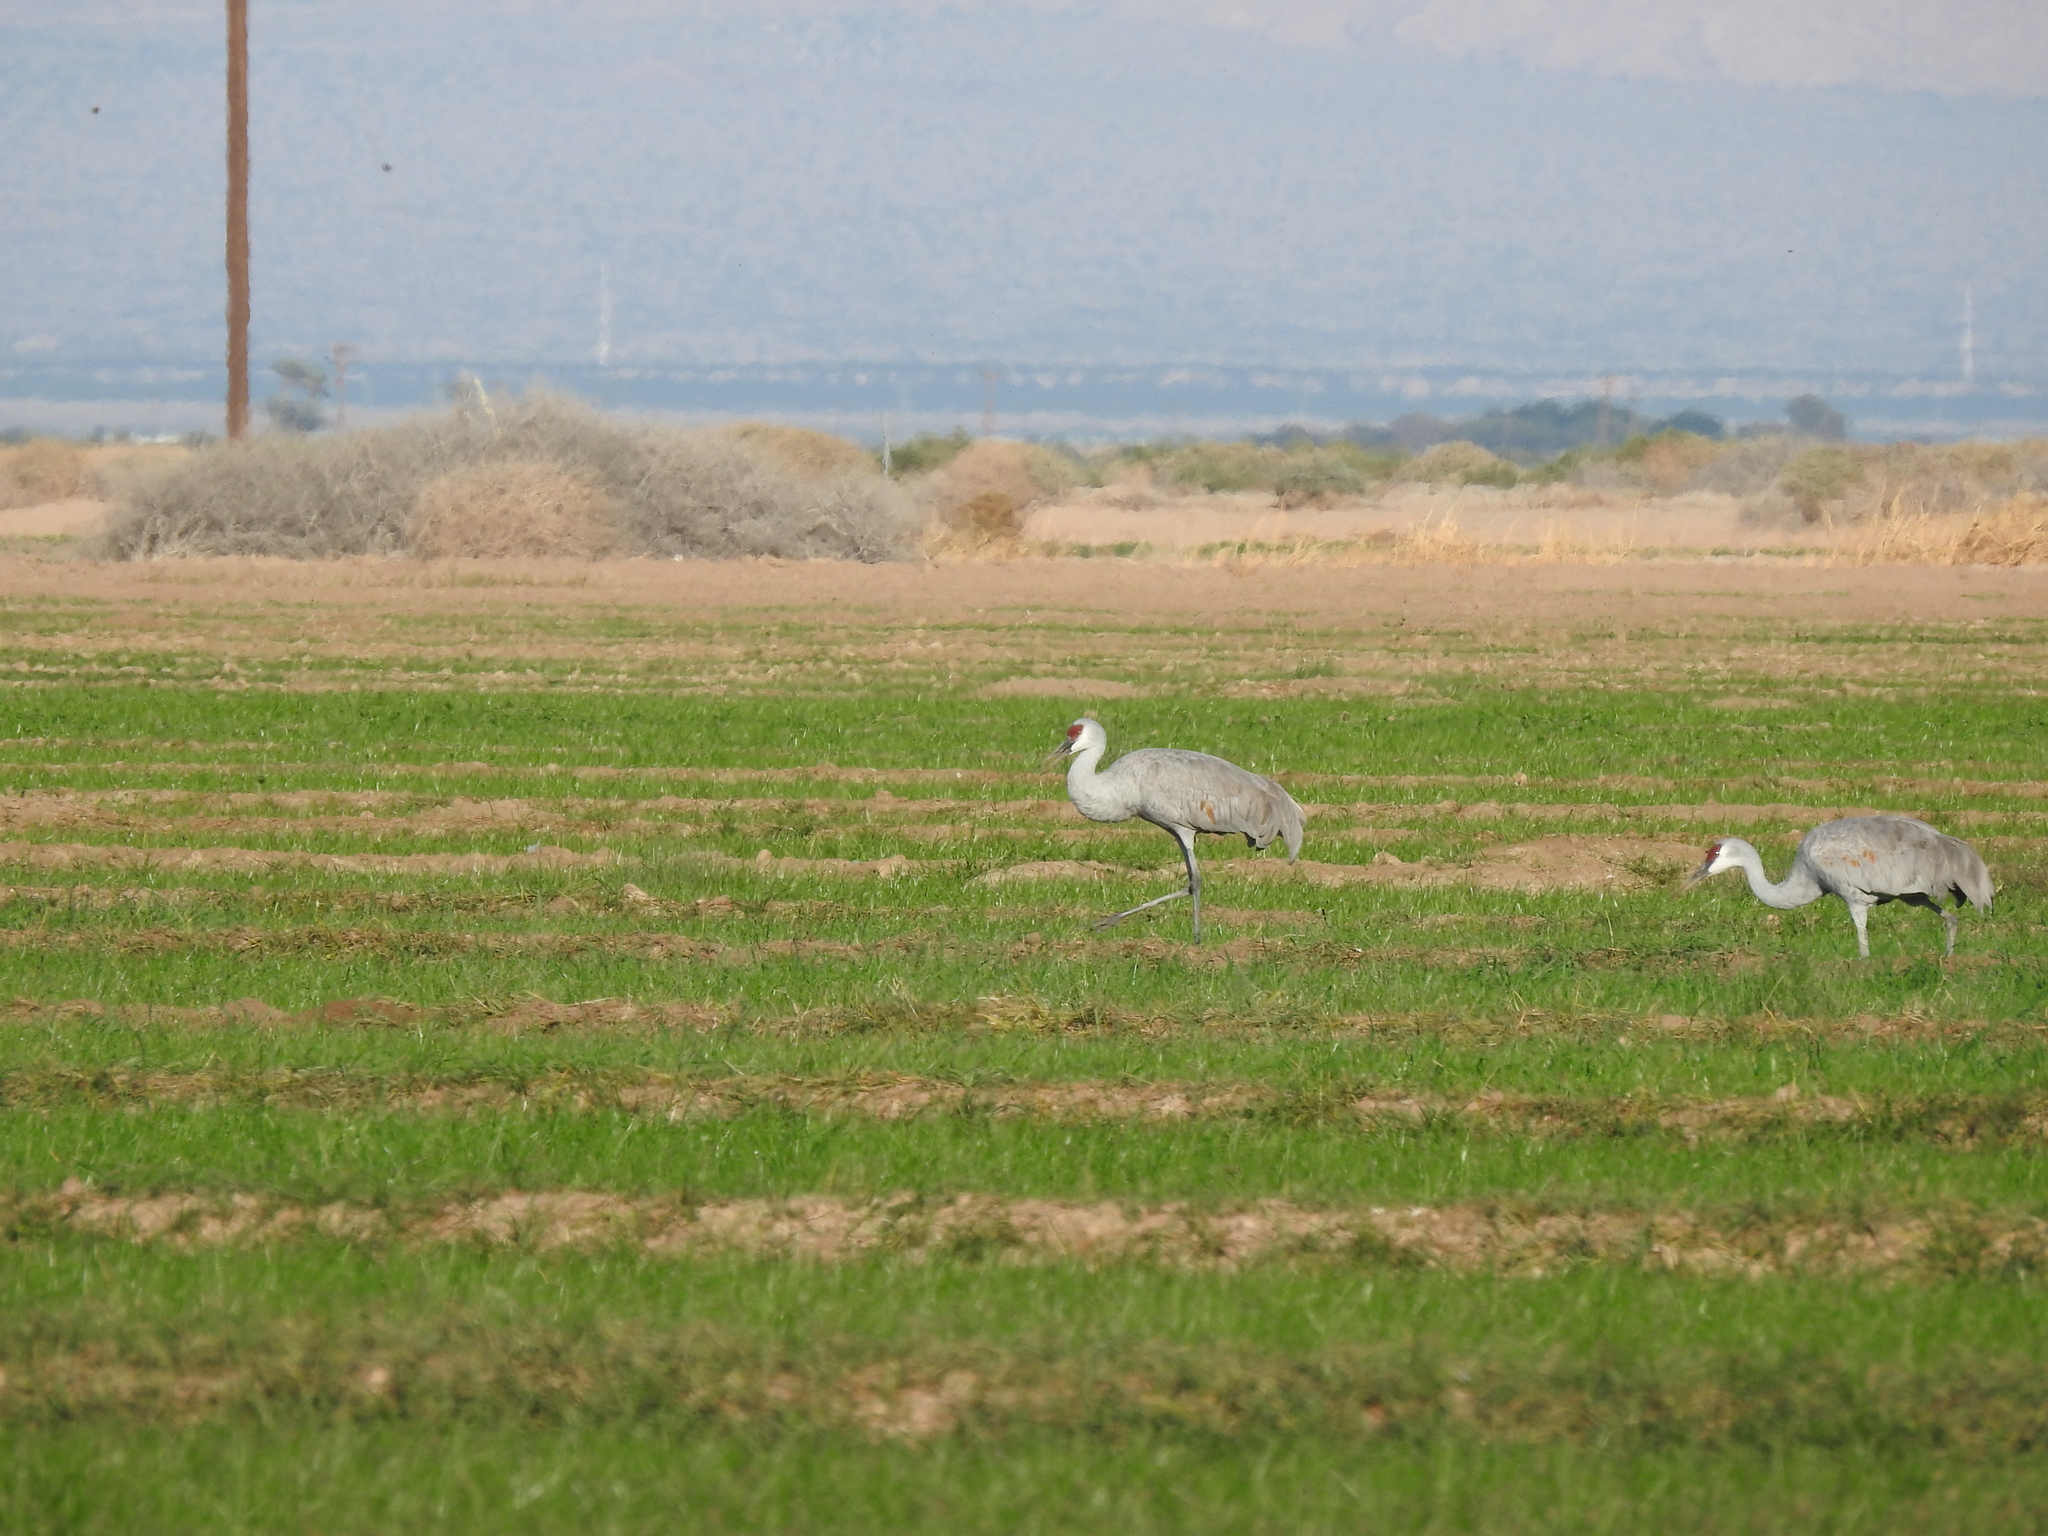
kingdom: Animalia
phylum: Chordata
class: Aves
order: Gruiformes
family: Gruidae
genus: Grus
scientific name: Grus canadensis
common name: Sandhill crane
